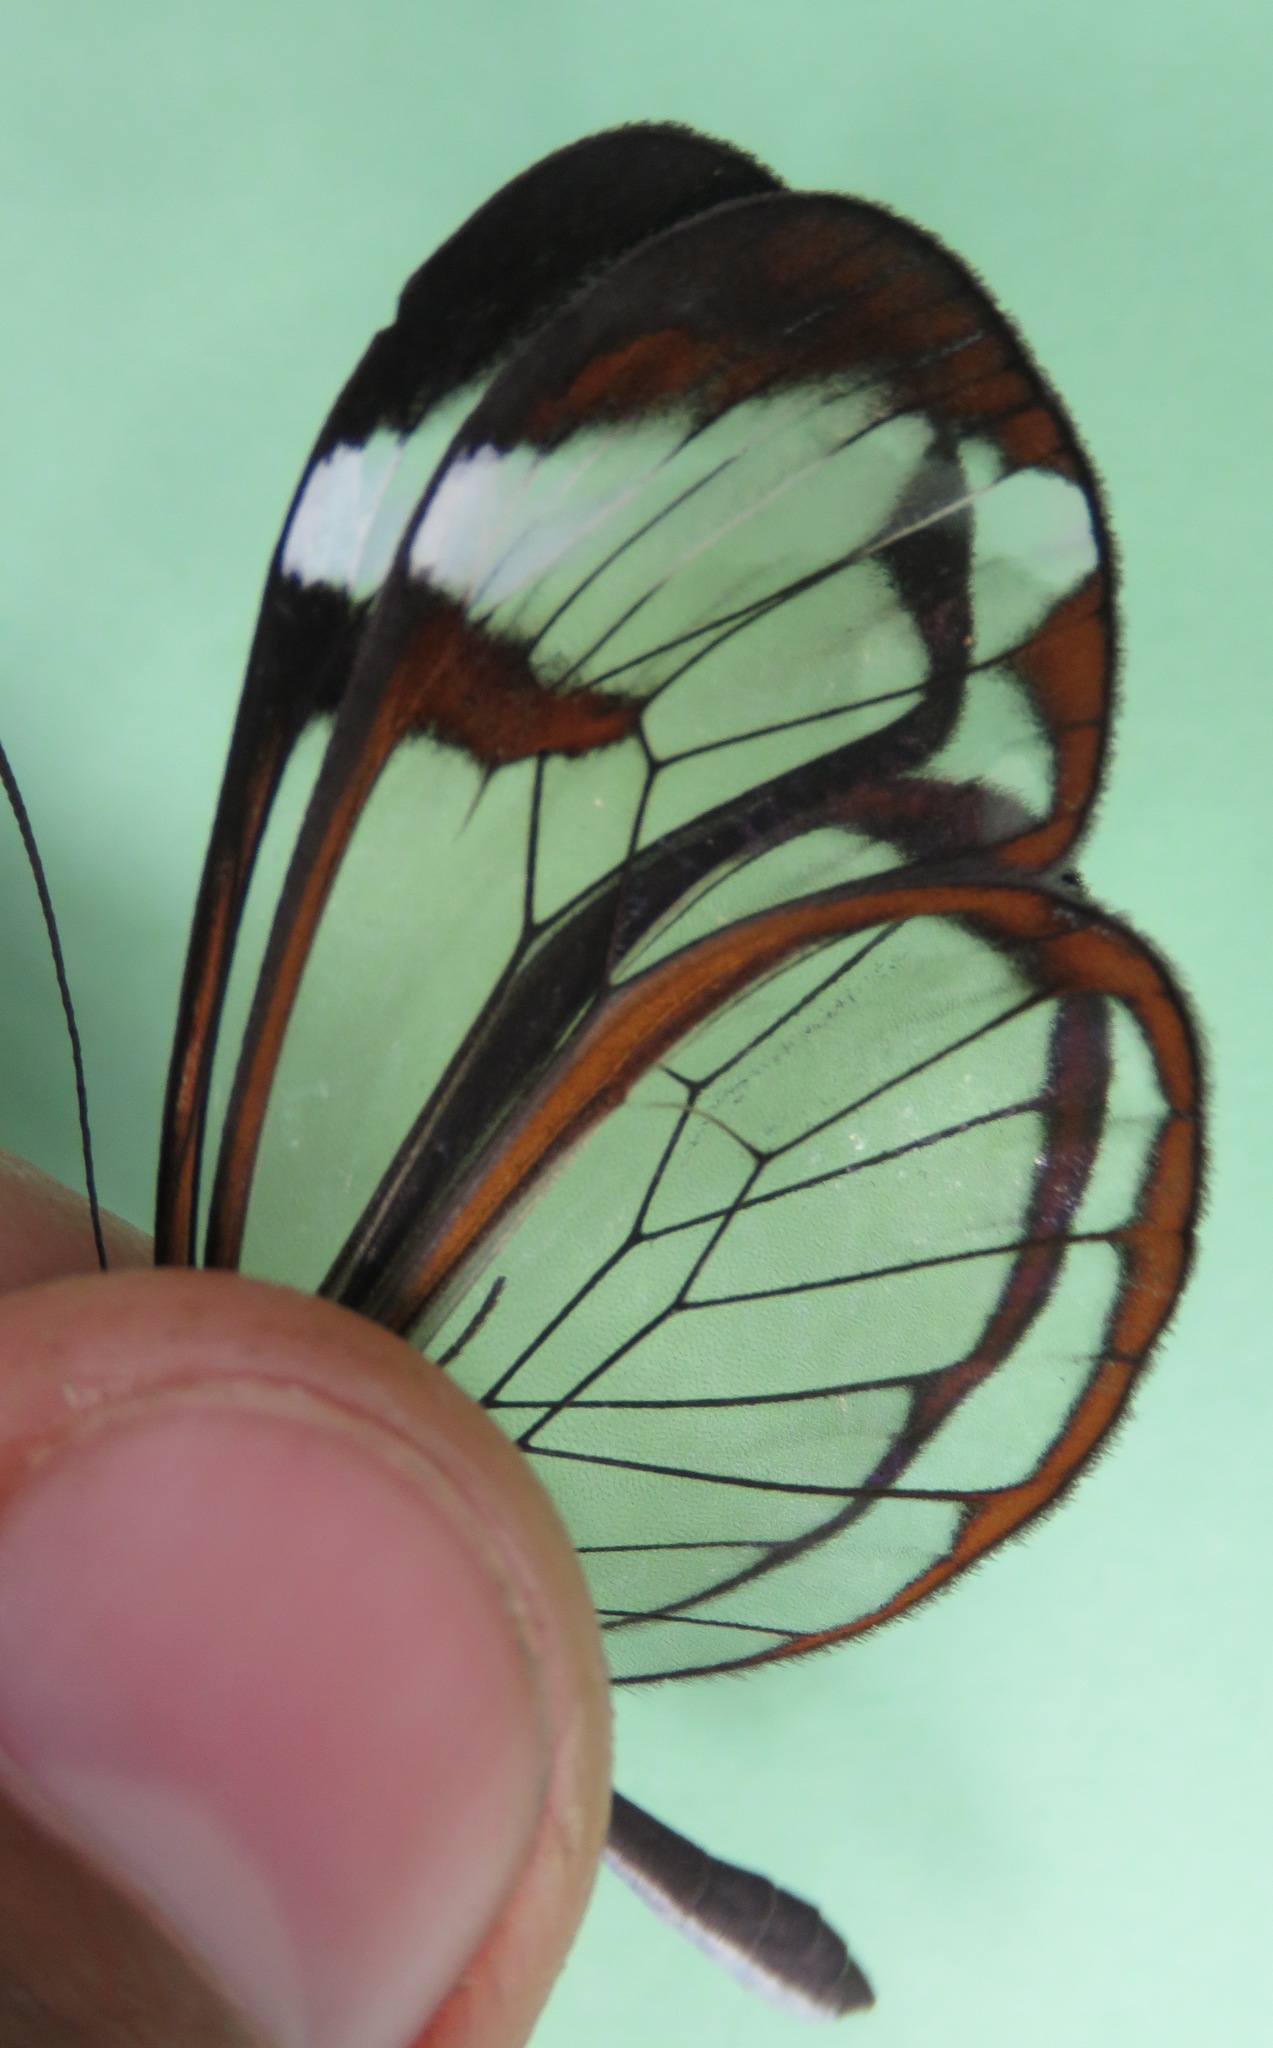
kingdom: Animalia
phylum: Arthropoda
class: Insecta
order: Lepidoptera
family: Nymphalidae
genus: Greta
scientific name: Greta morgane
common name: Thick-tipped greta
